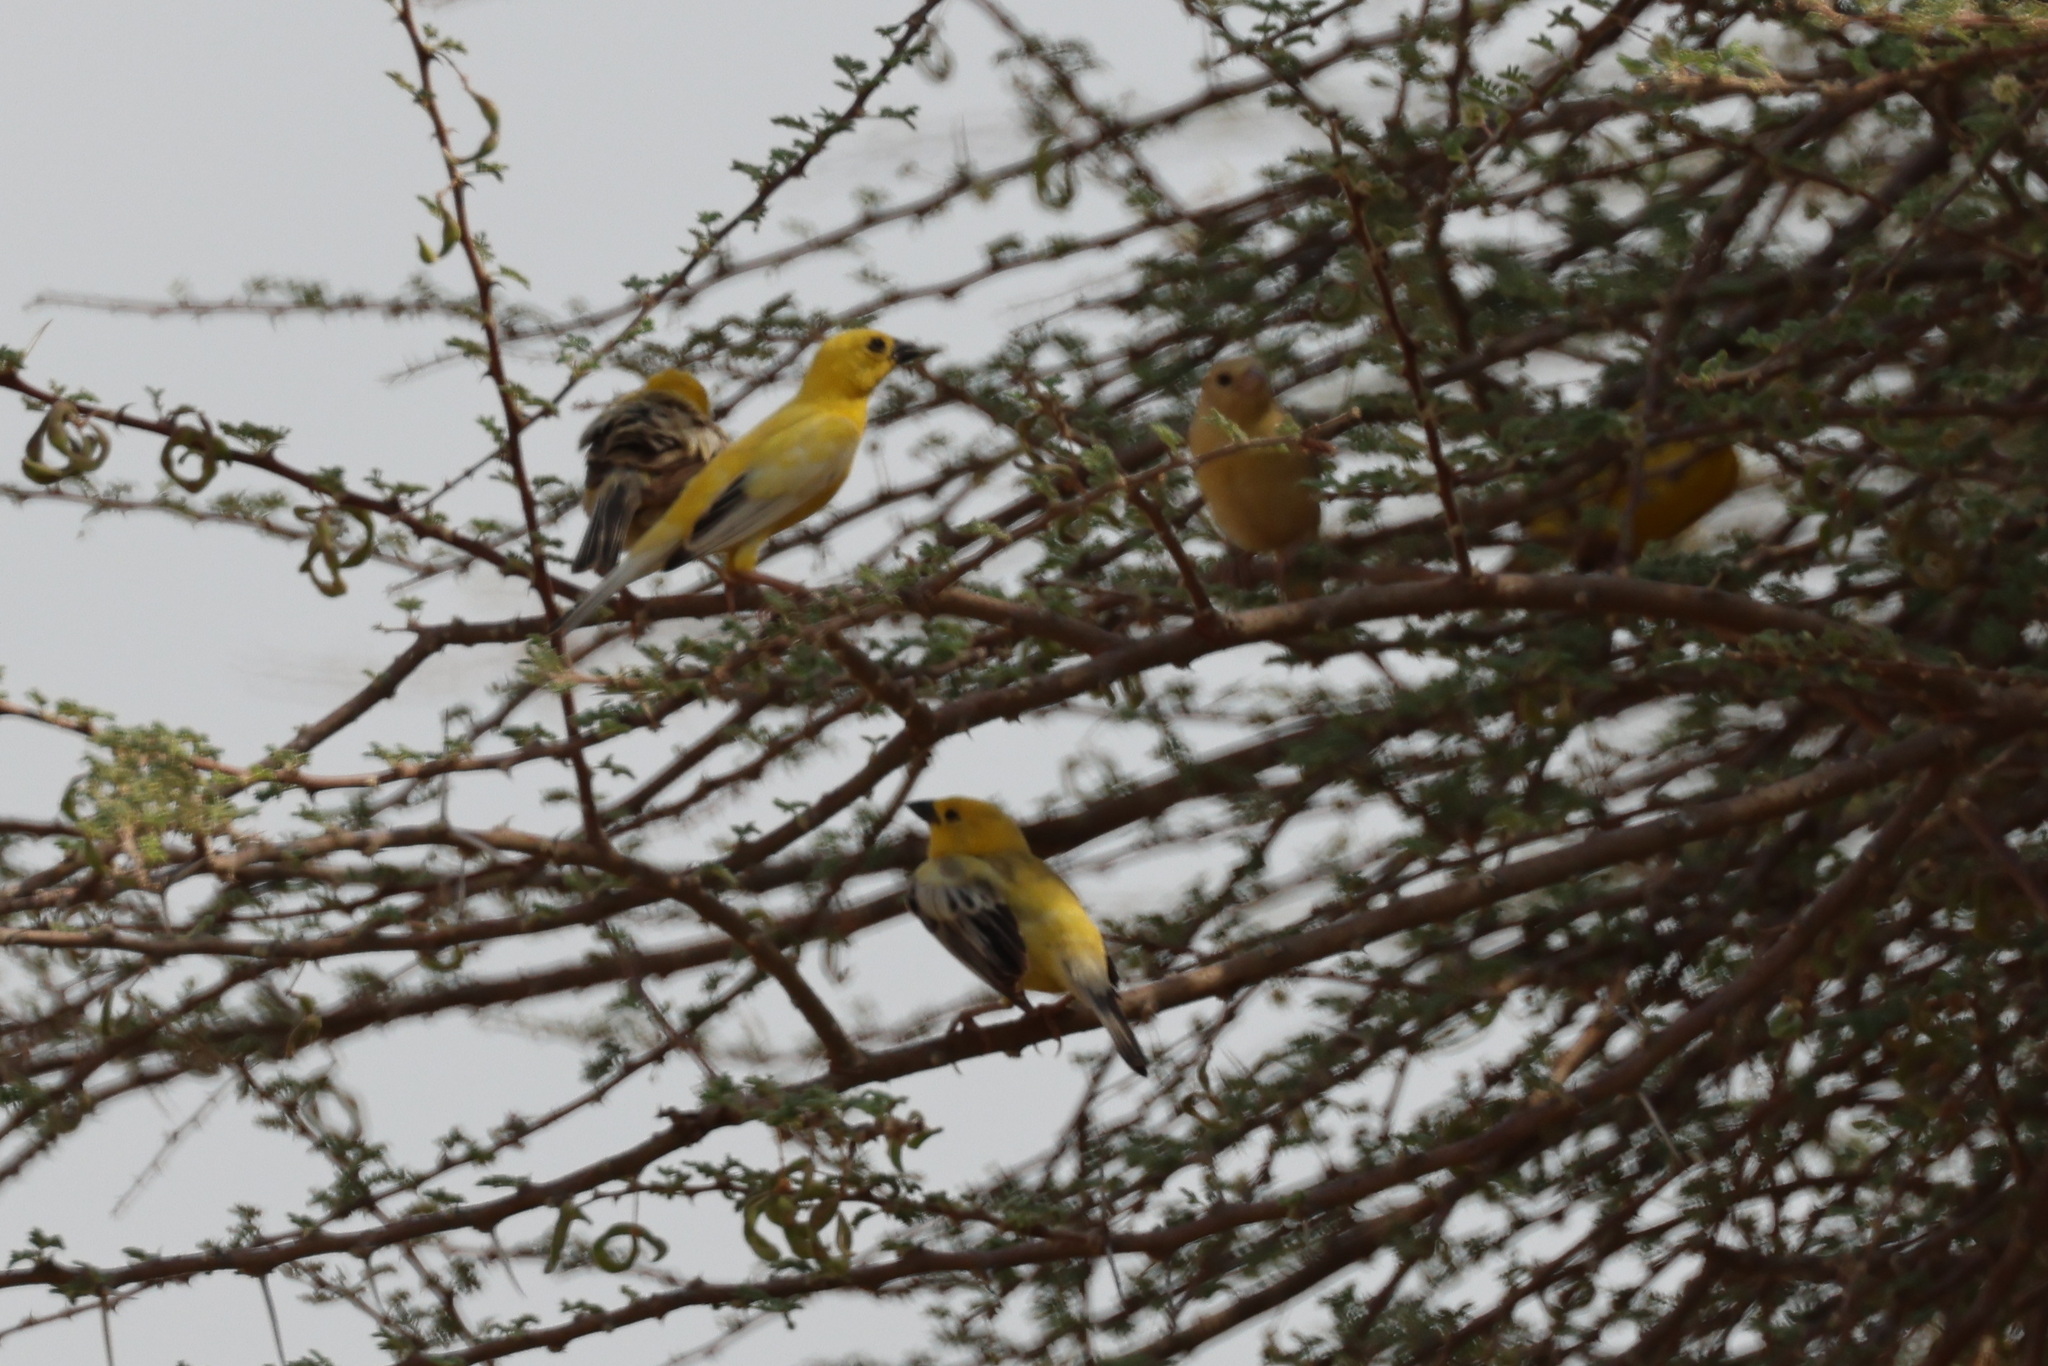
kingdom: Animalia
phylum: Chordata
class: Aves
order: Passeriformes
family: Passeridae
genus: Passer
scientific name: Passer euchlorus
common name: Arabian golden sparrow
